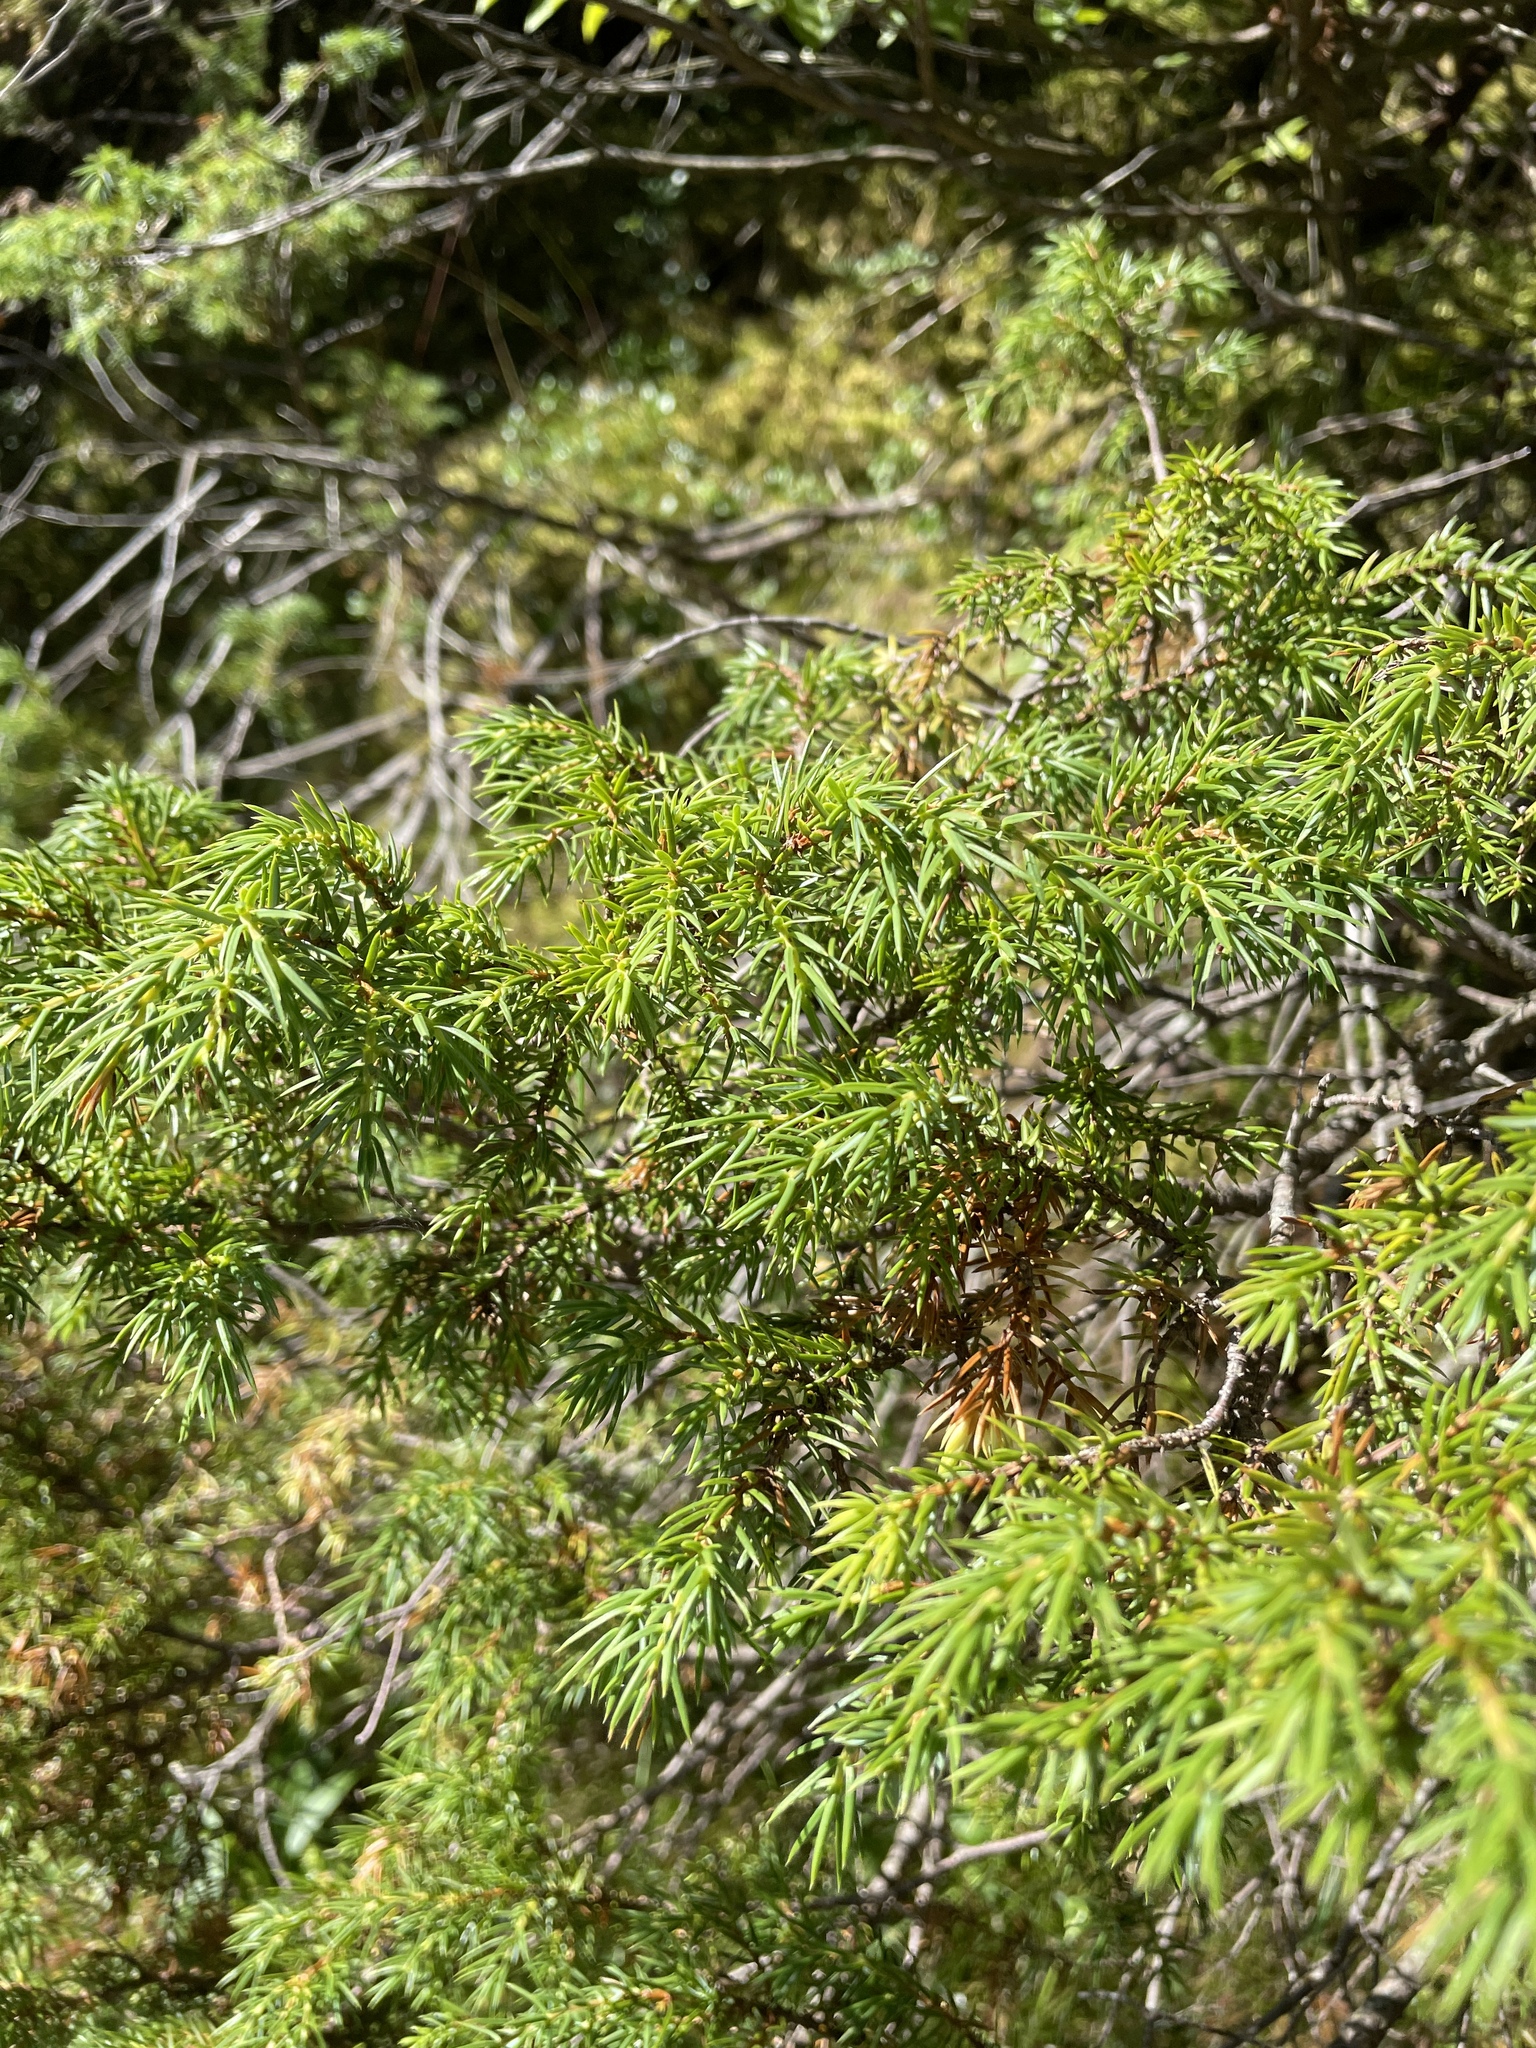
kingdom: Plantae
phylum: Tracheophyta
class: Pinopsida
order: Pinales
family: Cupressaceae
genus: Juniperus
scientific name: Juniperus communis
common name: Common juniper
